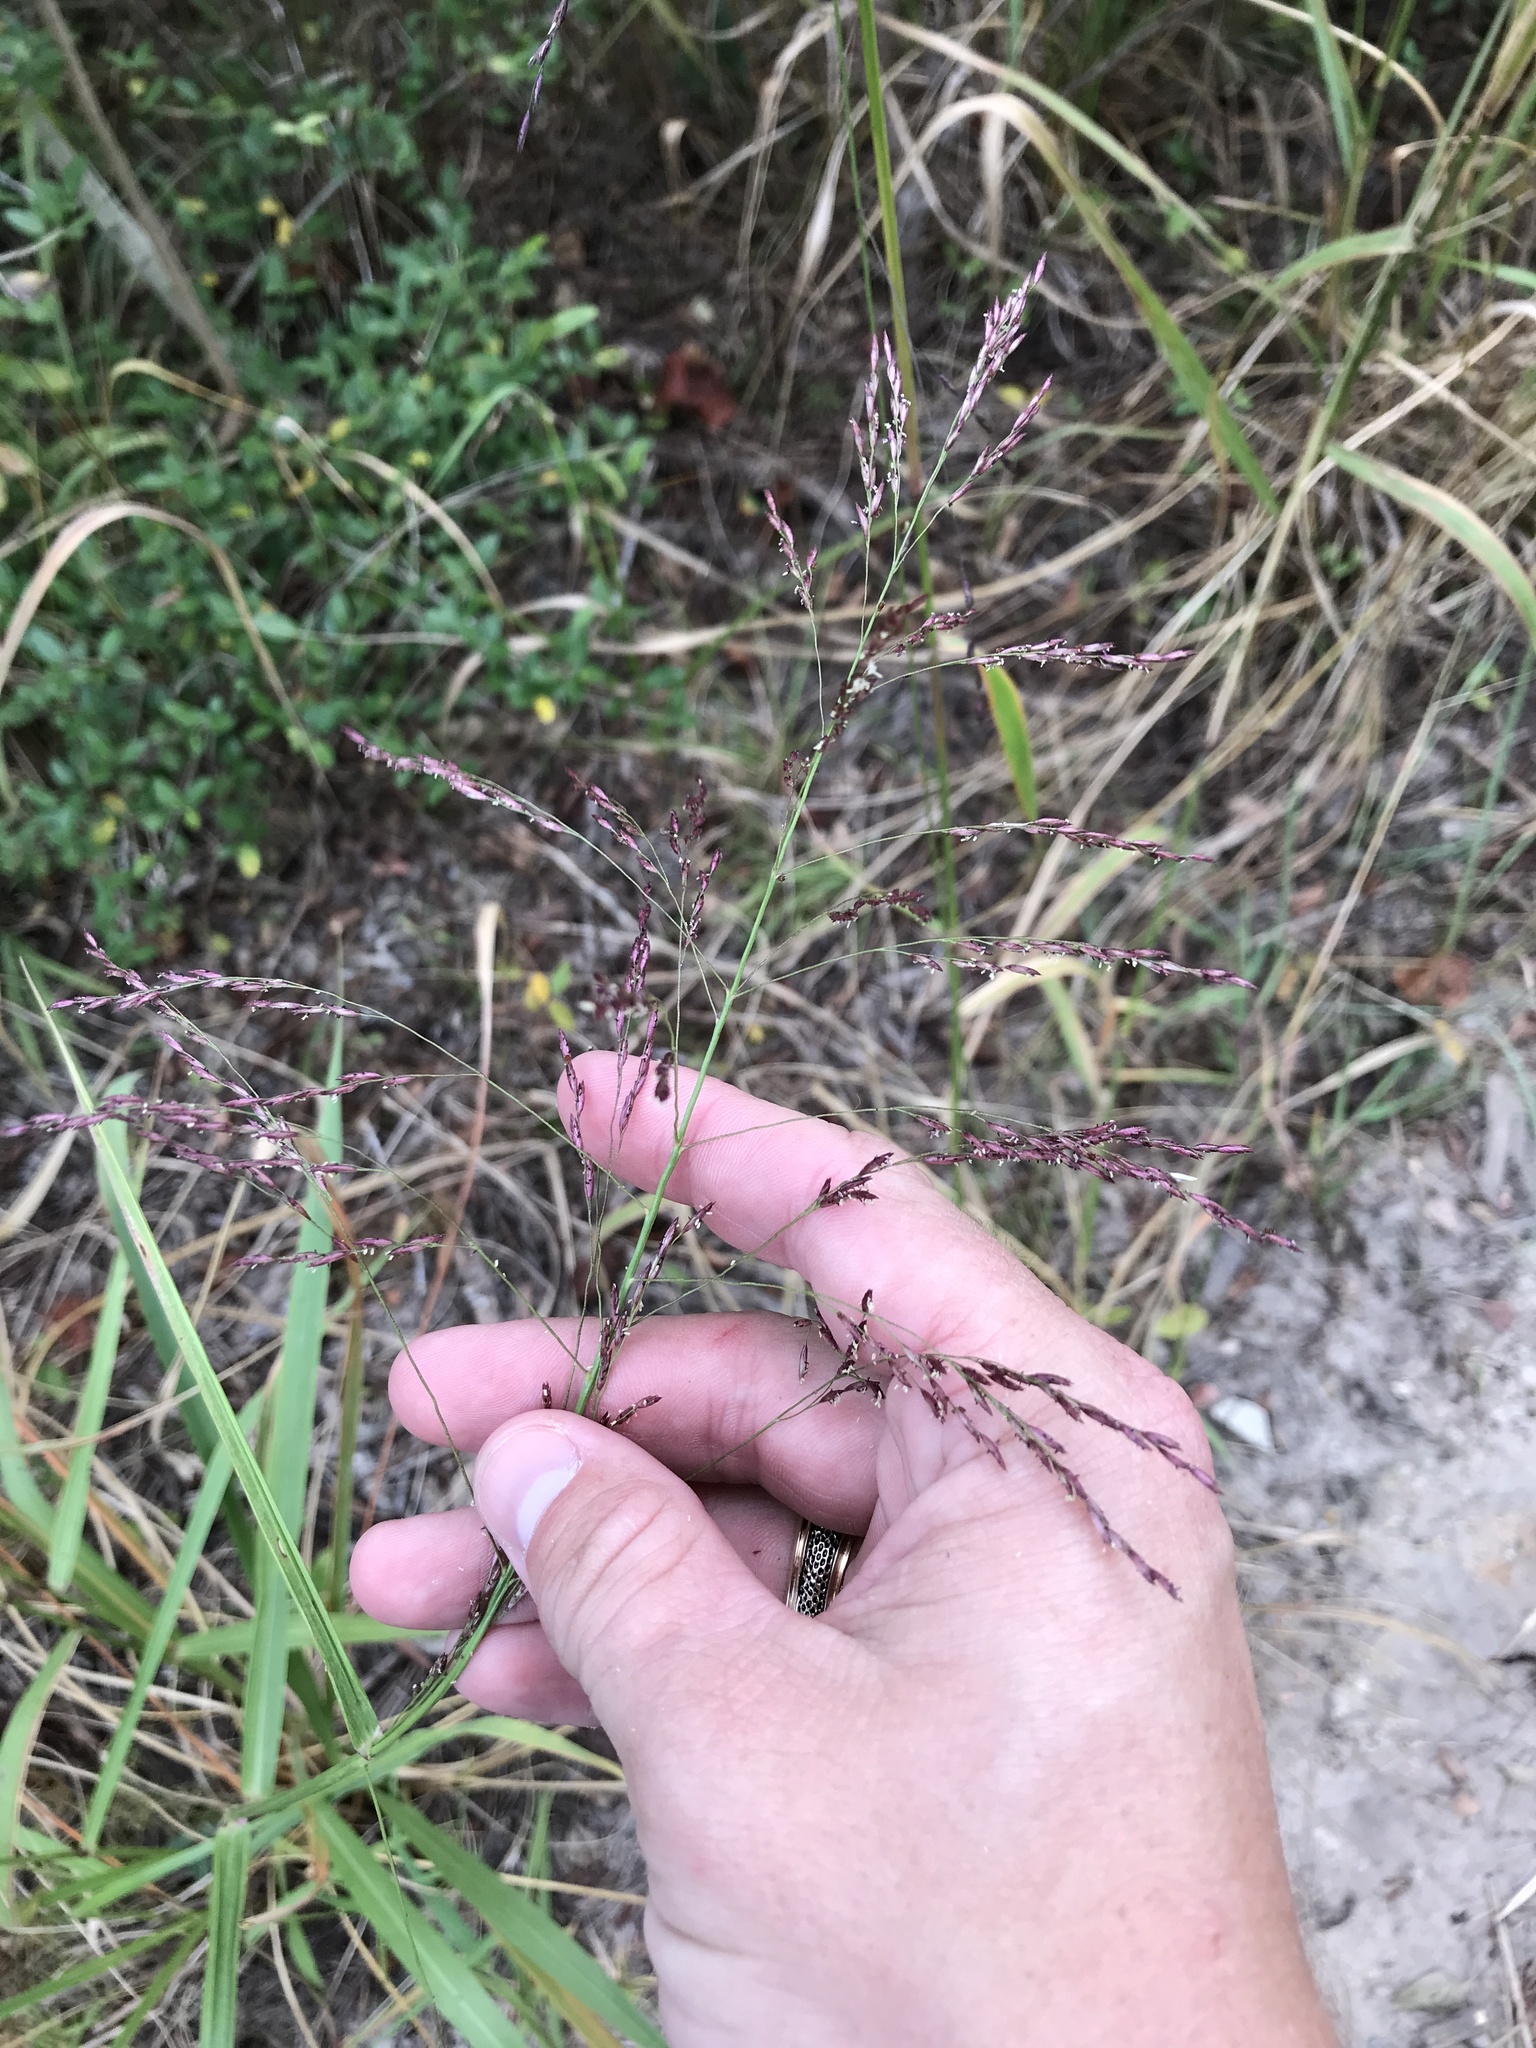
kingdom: Plantae
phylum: Tracheophyta
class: Liliopsida
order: Poales
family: Poaceae
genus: Tridens
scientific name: Tridens flavus
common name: Purpletop
